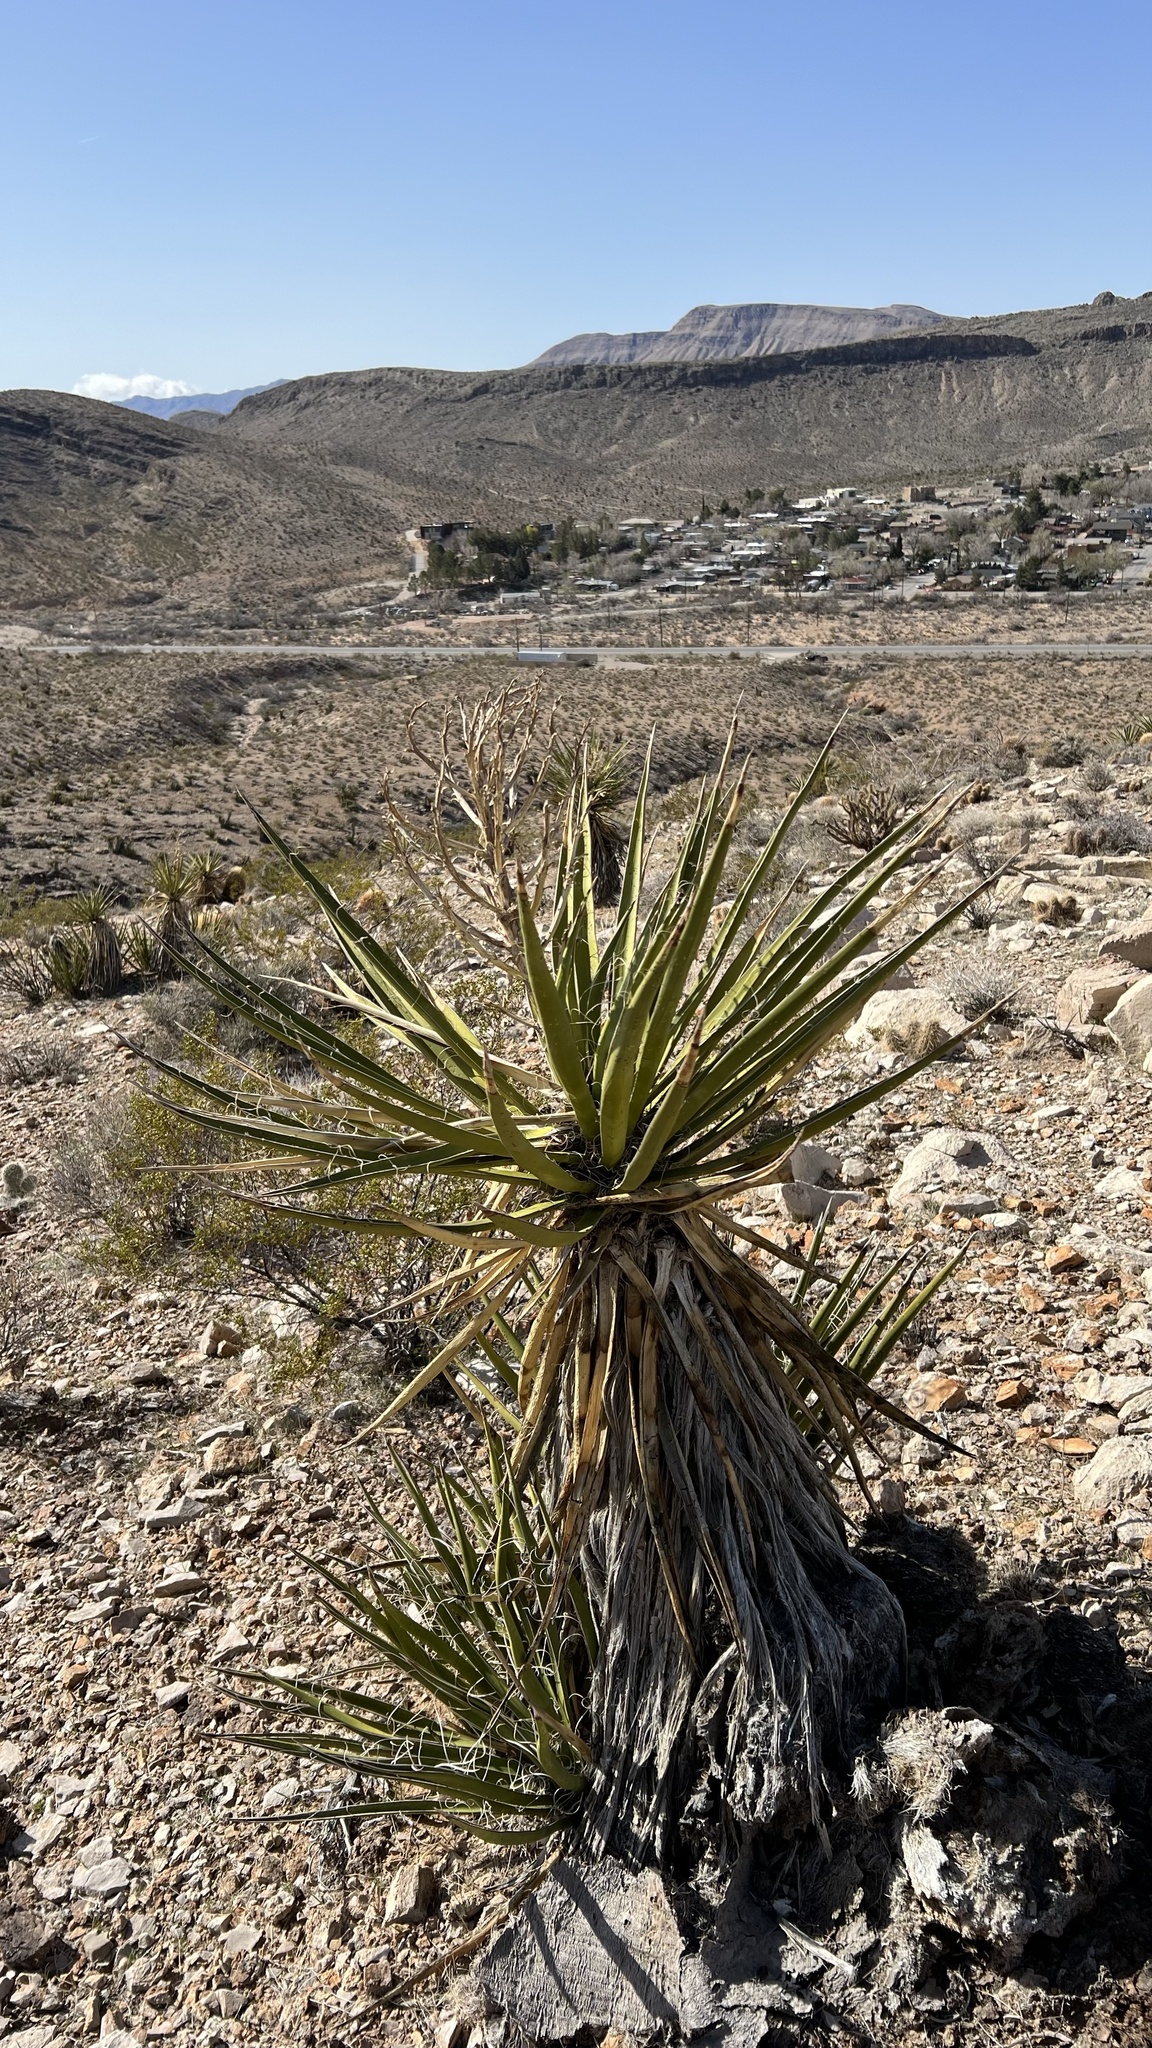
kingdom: Plantae
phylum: Tracheophyta
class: Liliopsida
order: Asparagales
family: Asparagaceae
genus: Yucca
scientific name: Yucca schidigera
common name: Mojave yucca
